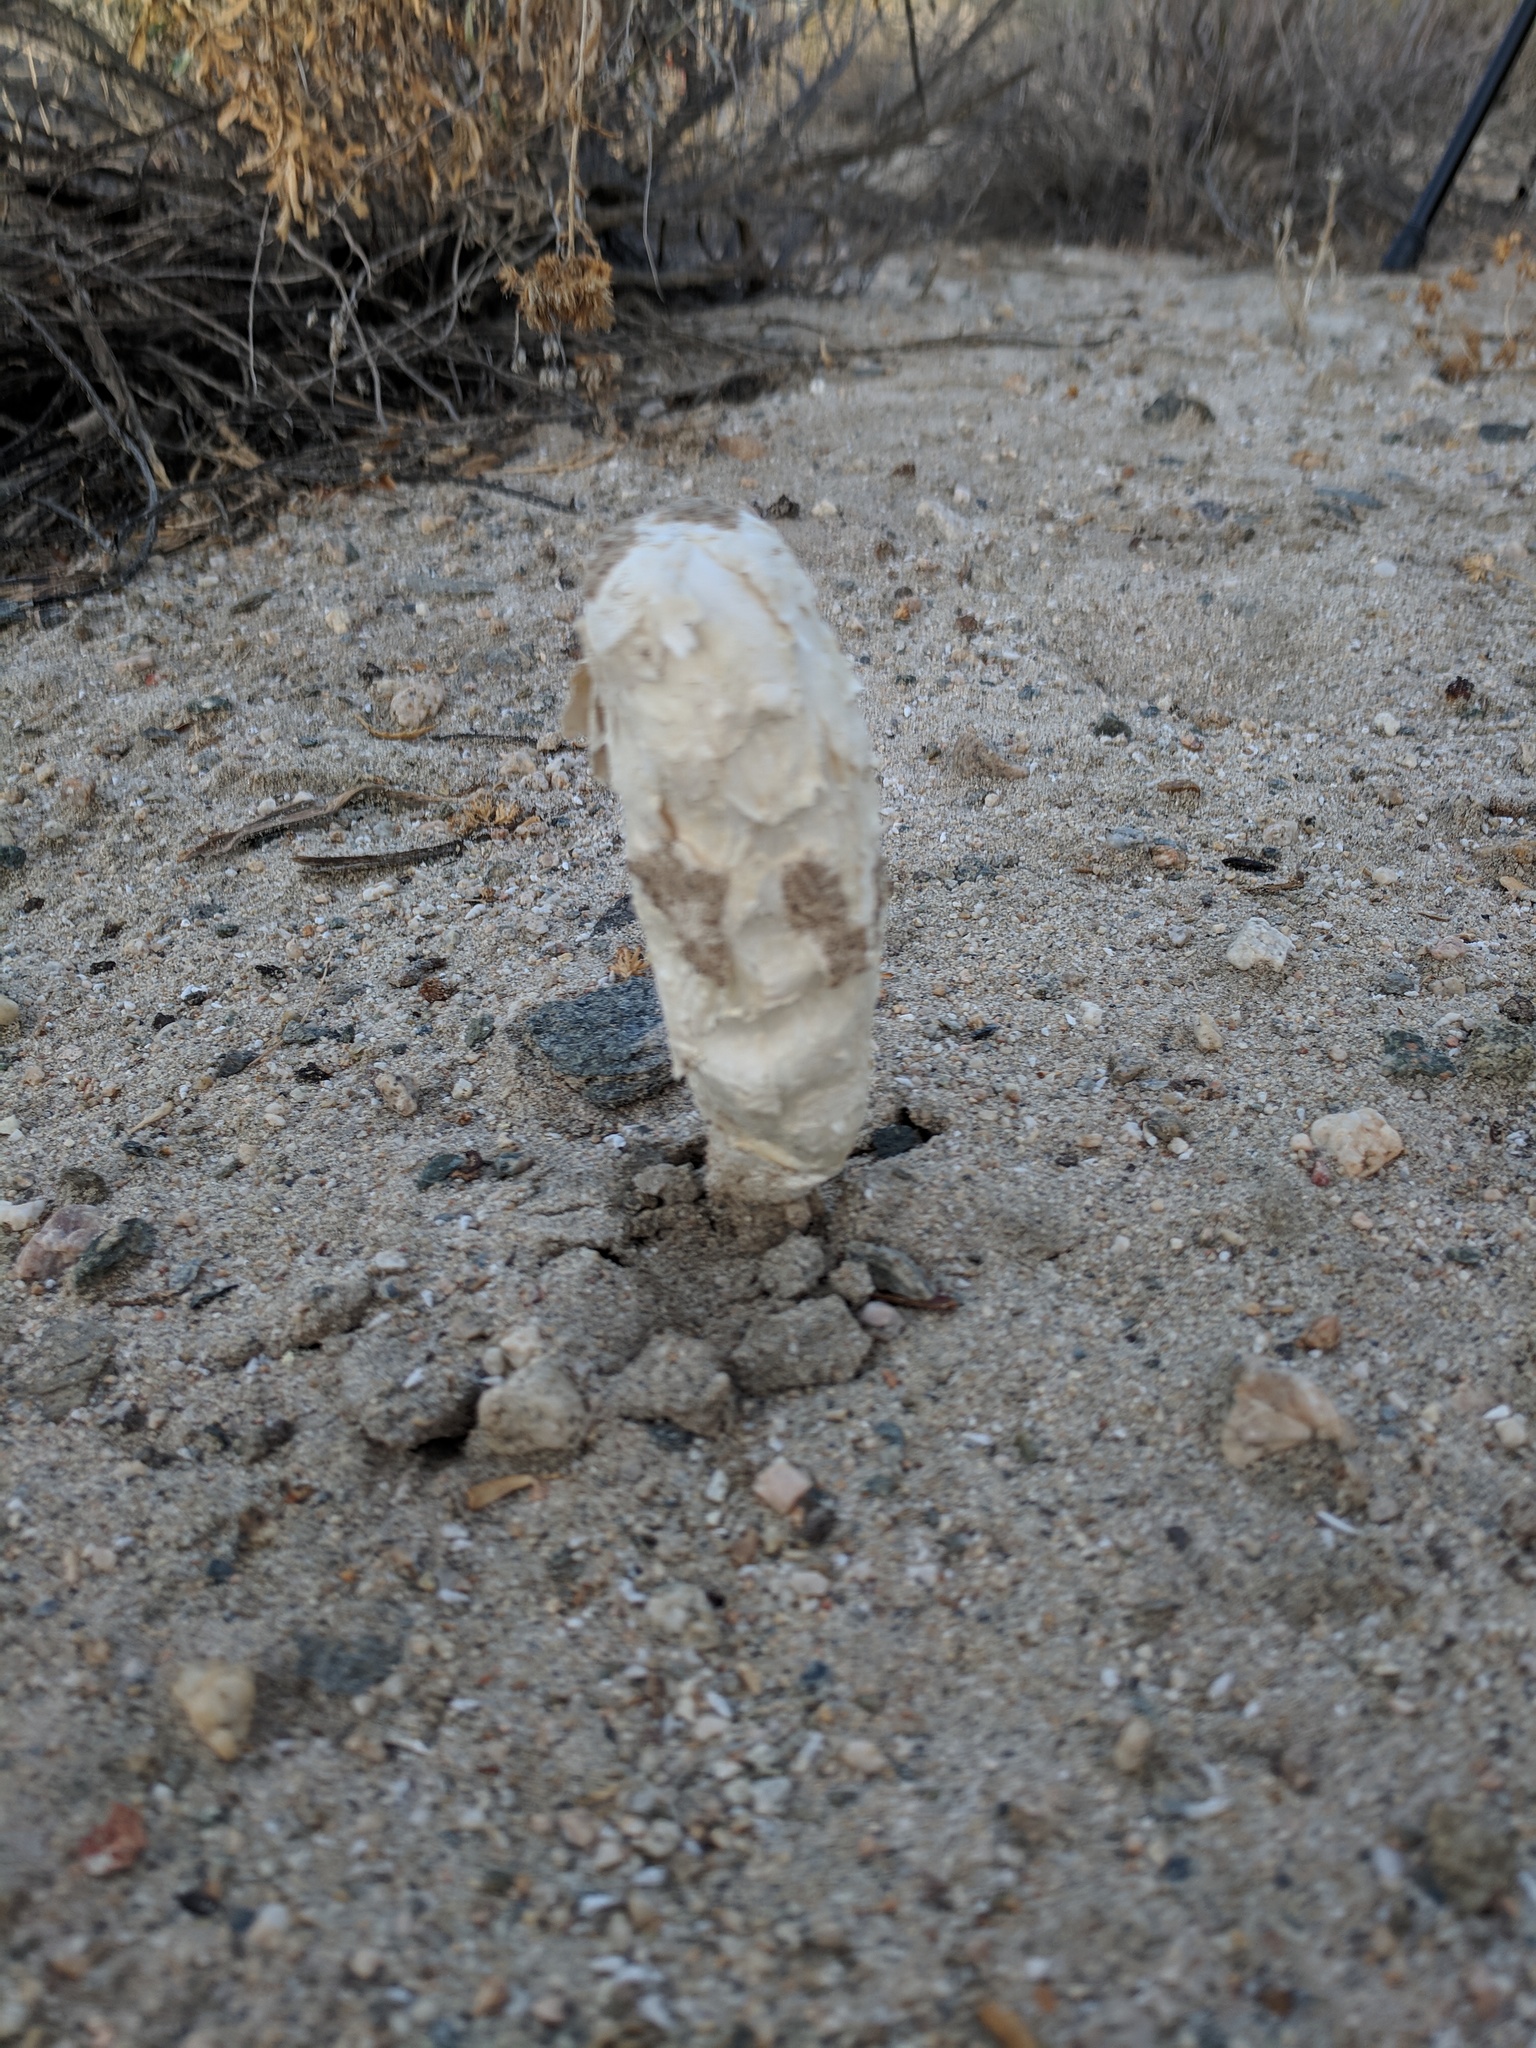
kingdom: Fungi
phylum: Basidiomycota
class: Agaricomycetes
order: Agaricales
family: Agaricaceae
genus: Podaxis
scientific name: Podaxis pistillaris
